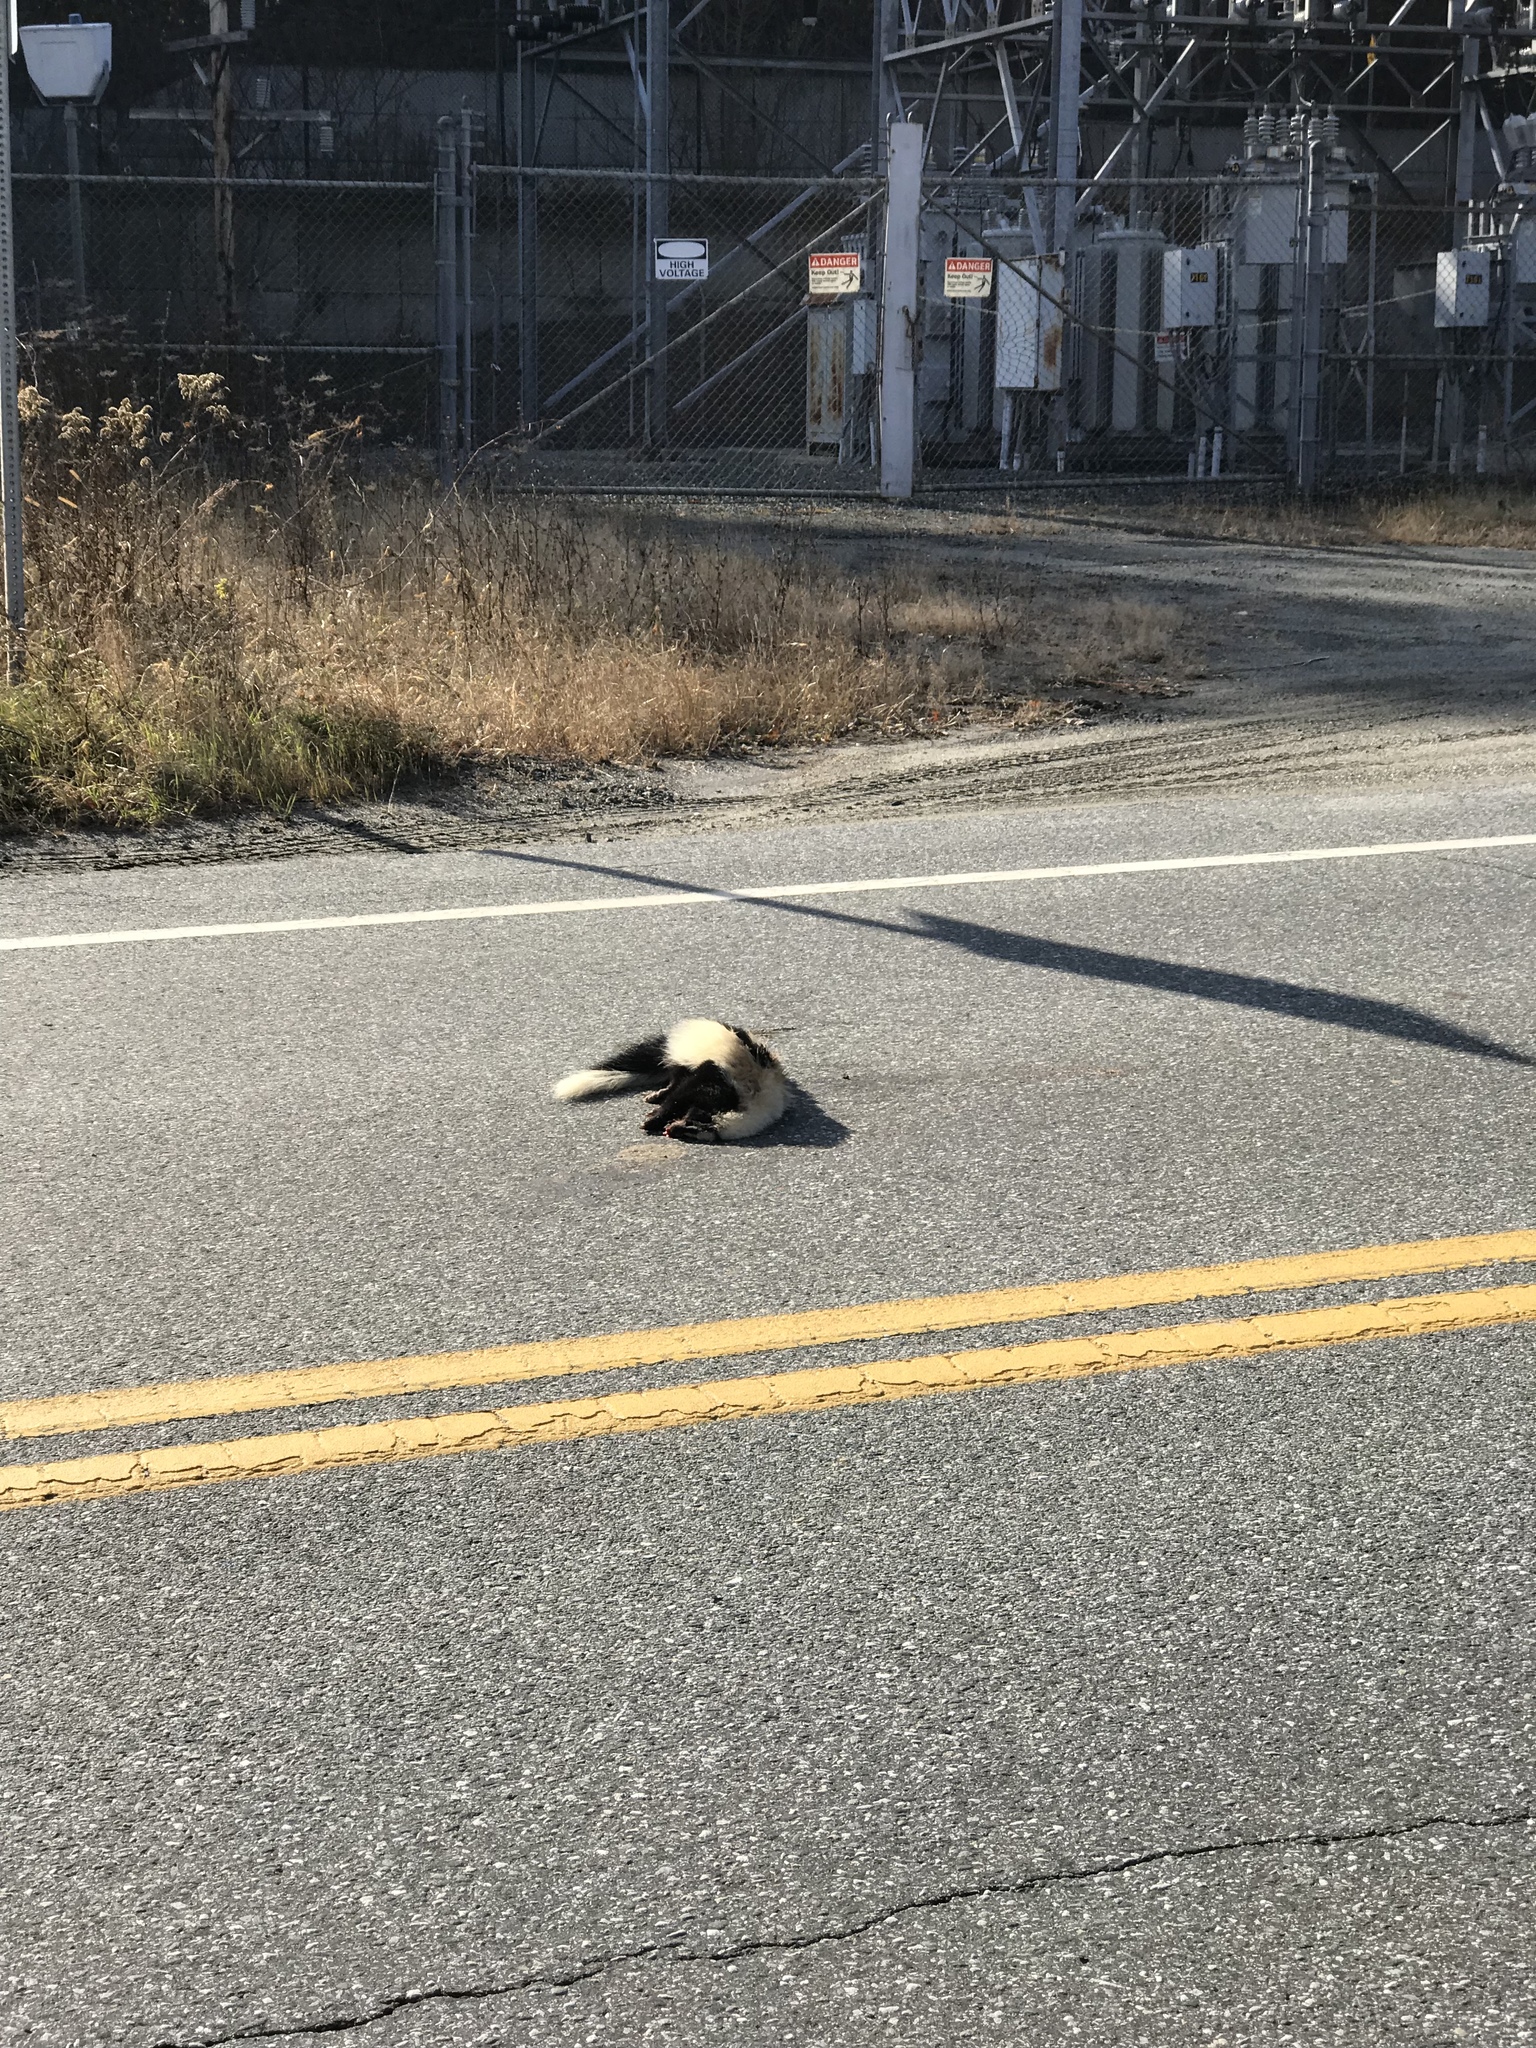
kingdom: Animalia
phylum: Chordata
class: Mammalia
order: Carnivora
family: Mephitidae
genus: Mephitis
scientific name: Mephitis mephitis
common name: Striped skunk
